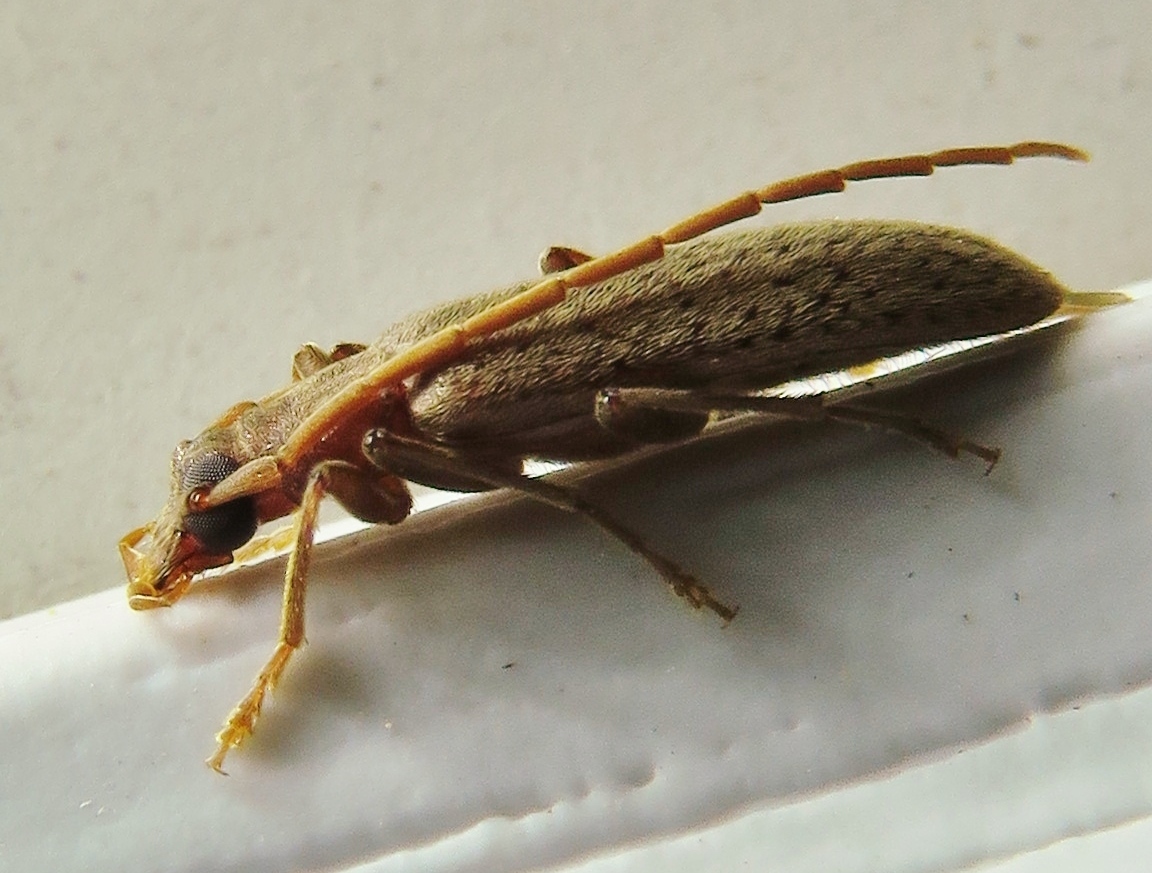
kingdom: Animalia
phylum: Arthropoda
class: Insecta
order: Coleoptera
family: Oedemeridae
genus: Sparedrus
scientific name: Sparedrus aspersus
